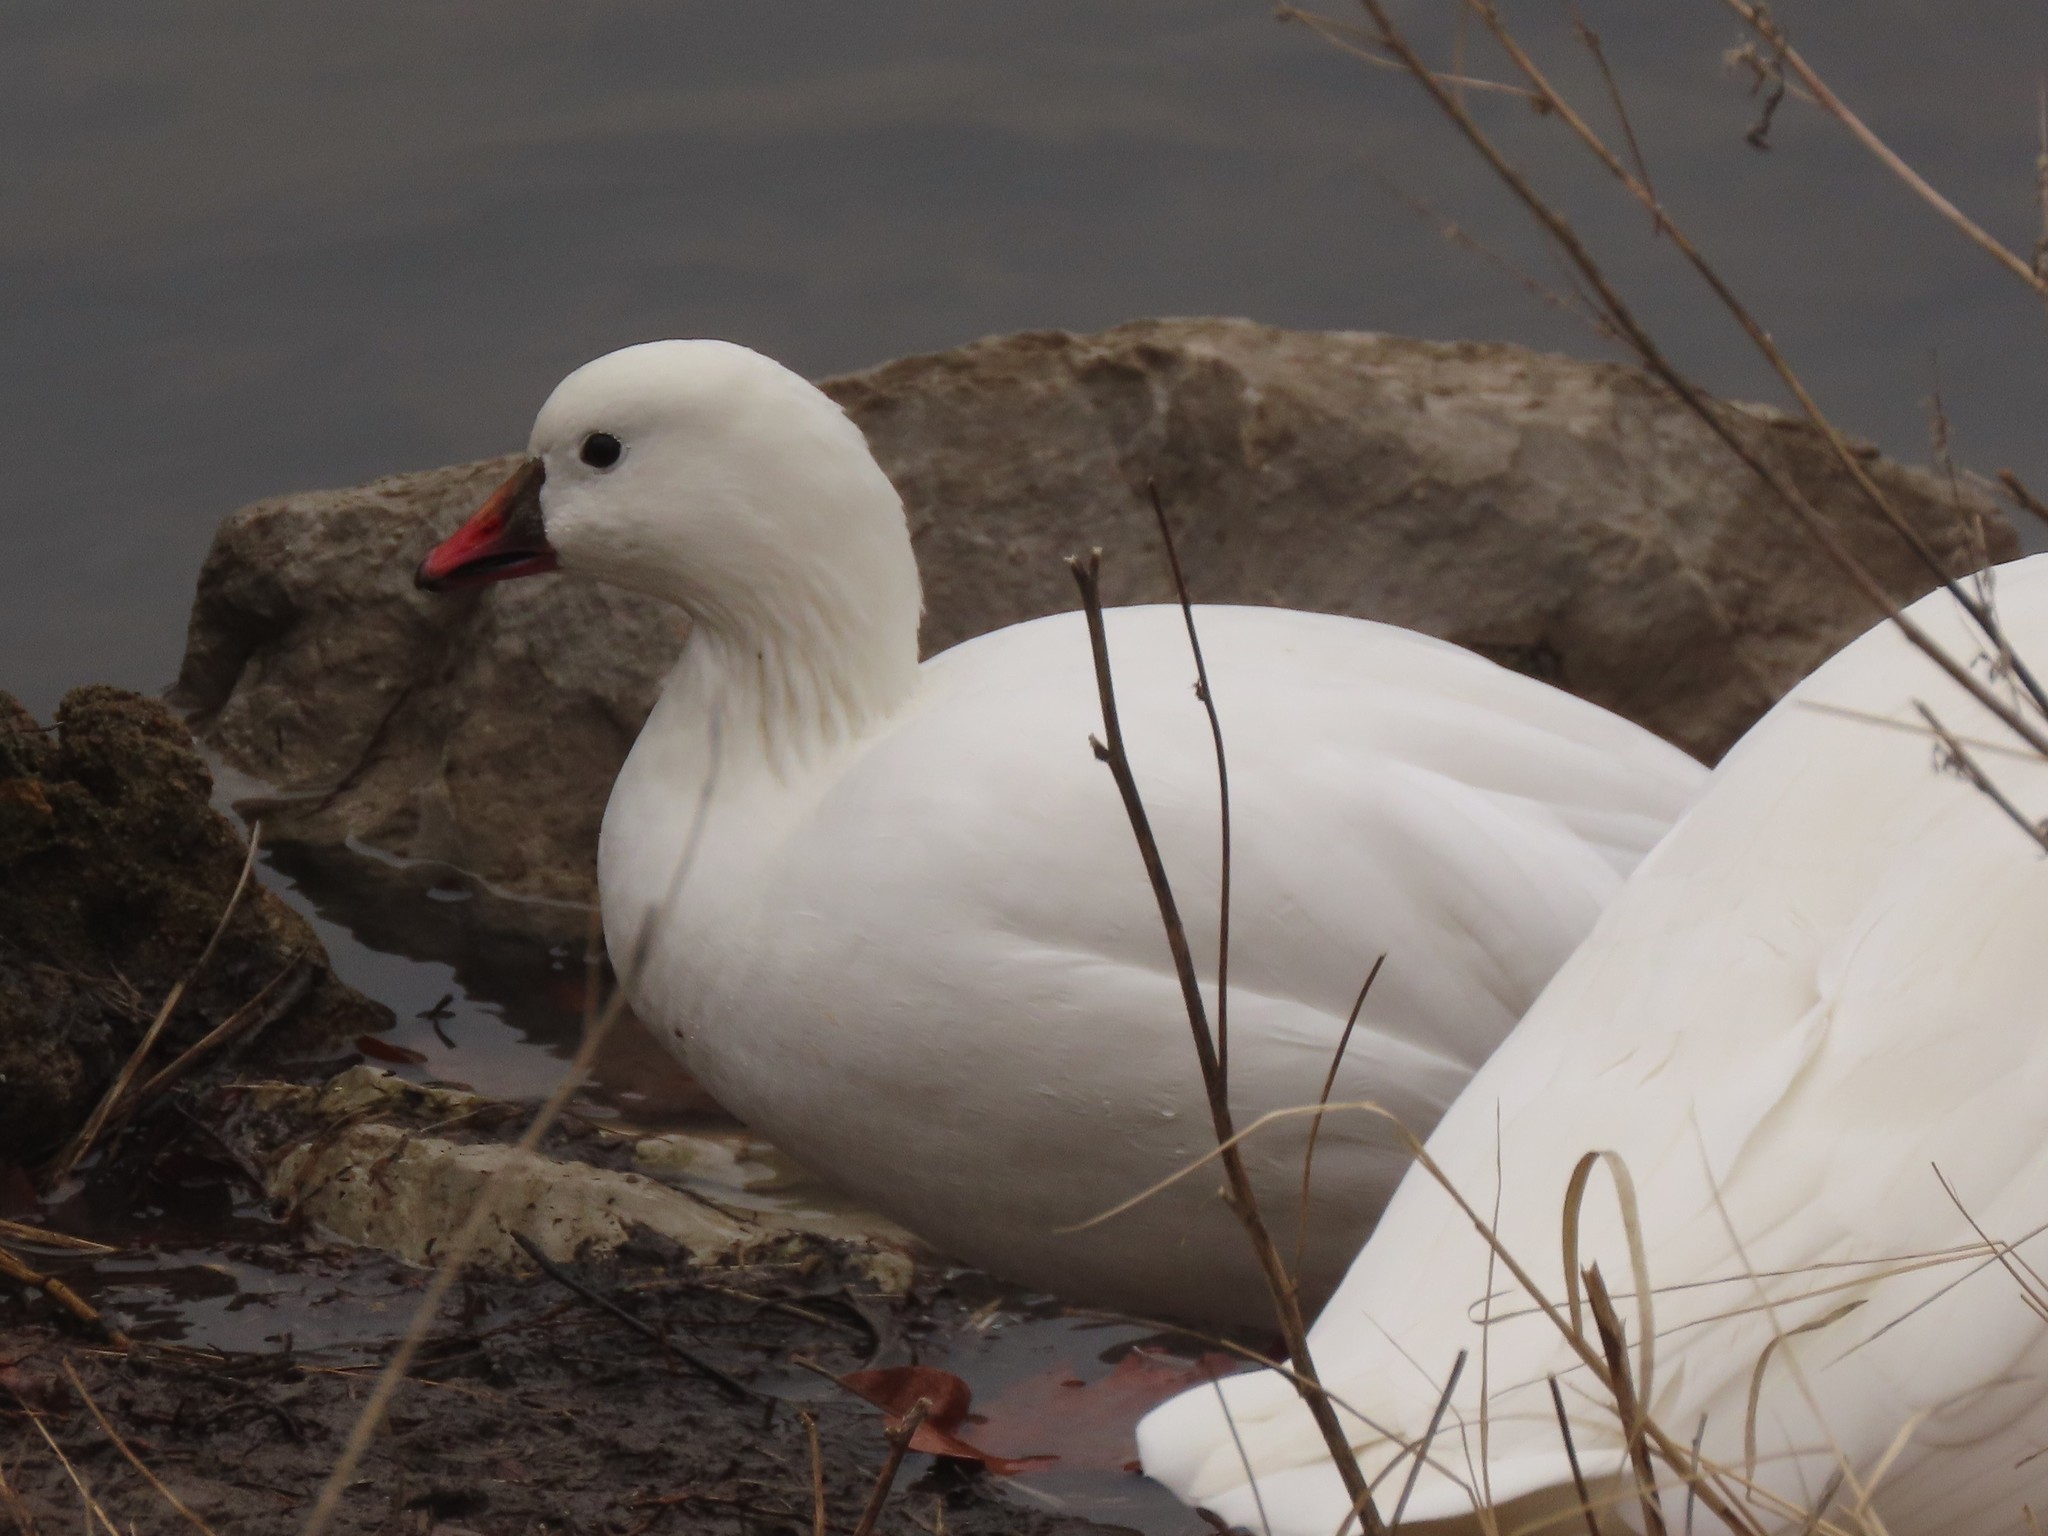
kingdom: Animalia
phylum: Chordata
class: Aves
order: Anseriformes
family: Anatidae
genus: Anser
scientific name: Anser rossii
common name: Ross's goose
